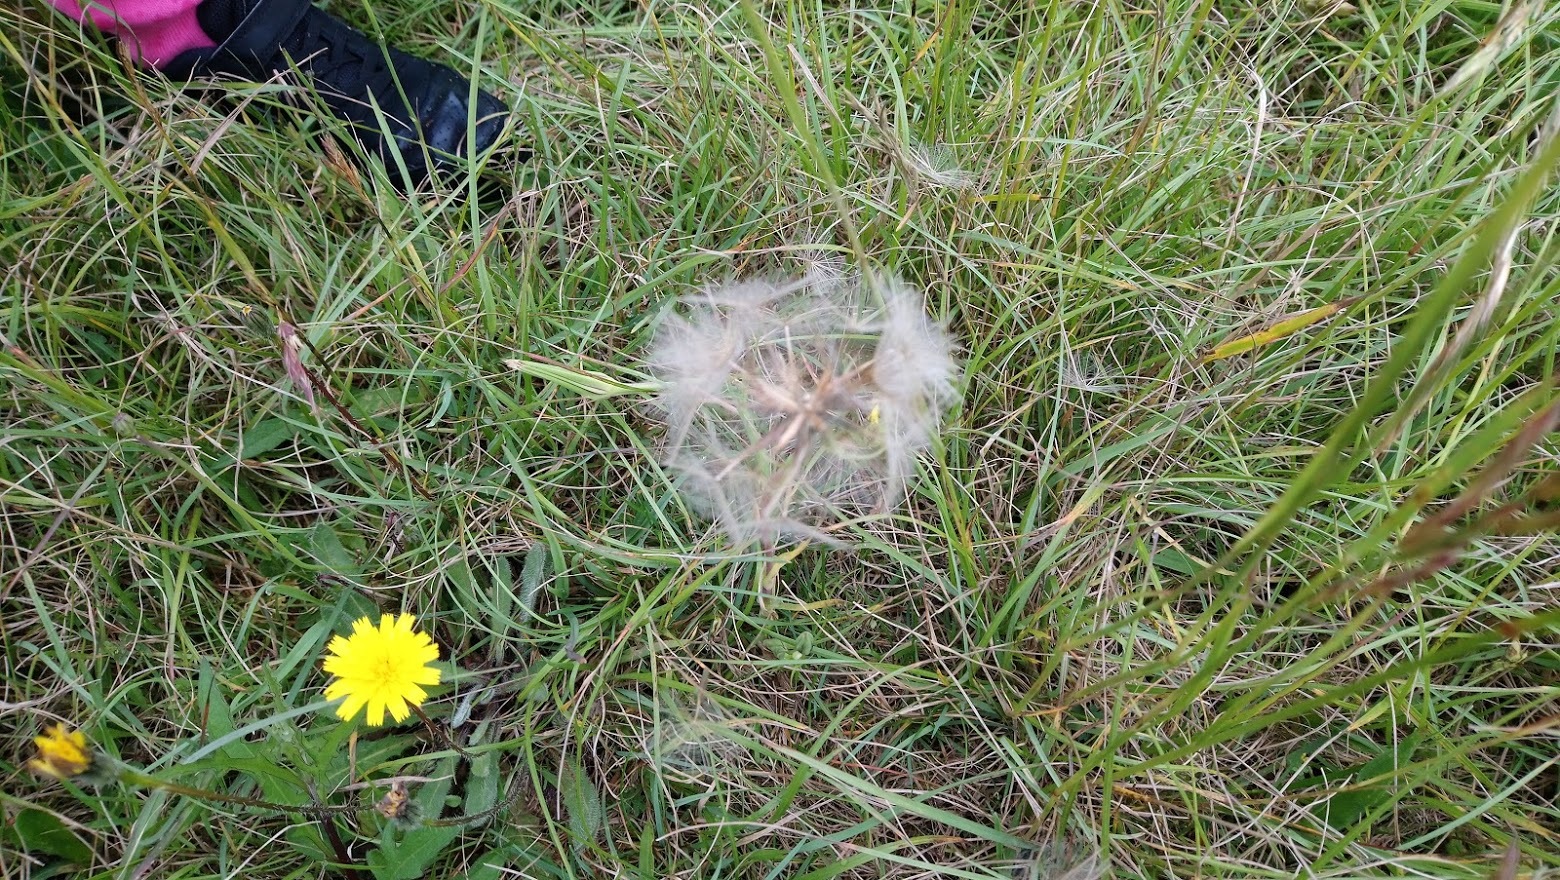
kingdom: Plantae
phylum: Tracheophyta
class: Magnoliopsida
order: Asterales
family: Asteraceae
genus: Tragopogon
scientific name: Tragopogon pratensis
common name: Goat's-beard
